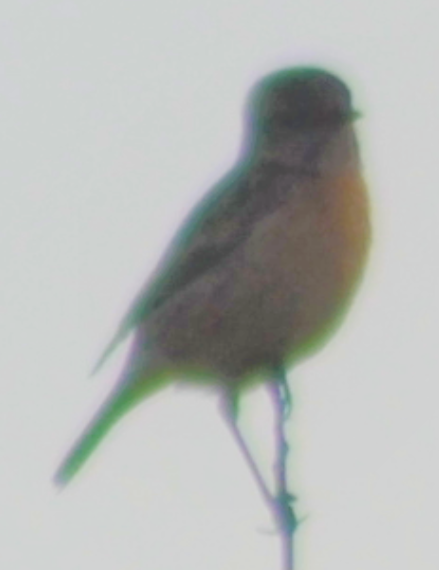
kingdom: Animalia
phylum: Chordata
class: Aves
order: Passeriformes
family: Muscicapidae
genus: Saxicola
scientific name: Saxicola rubicola
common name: European stonechat
